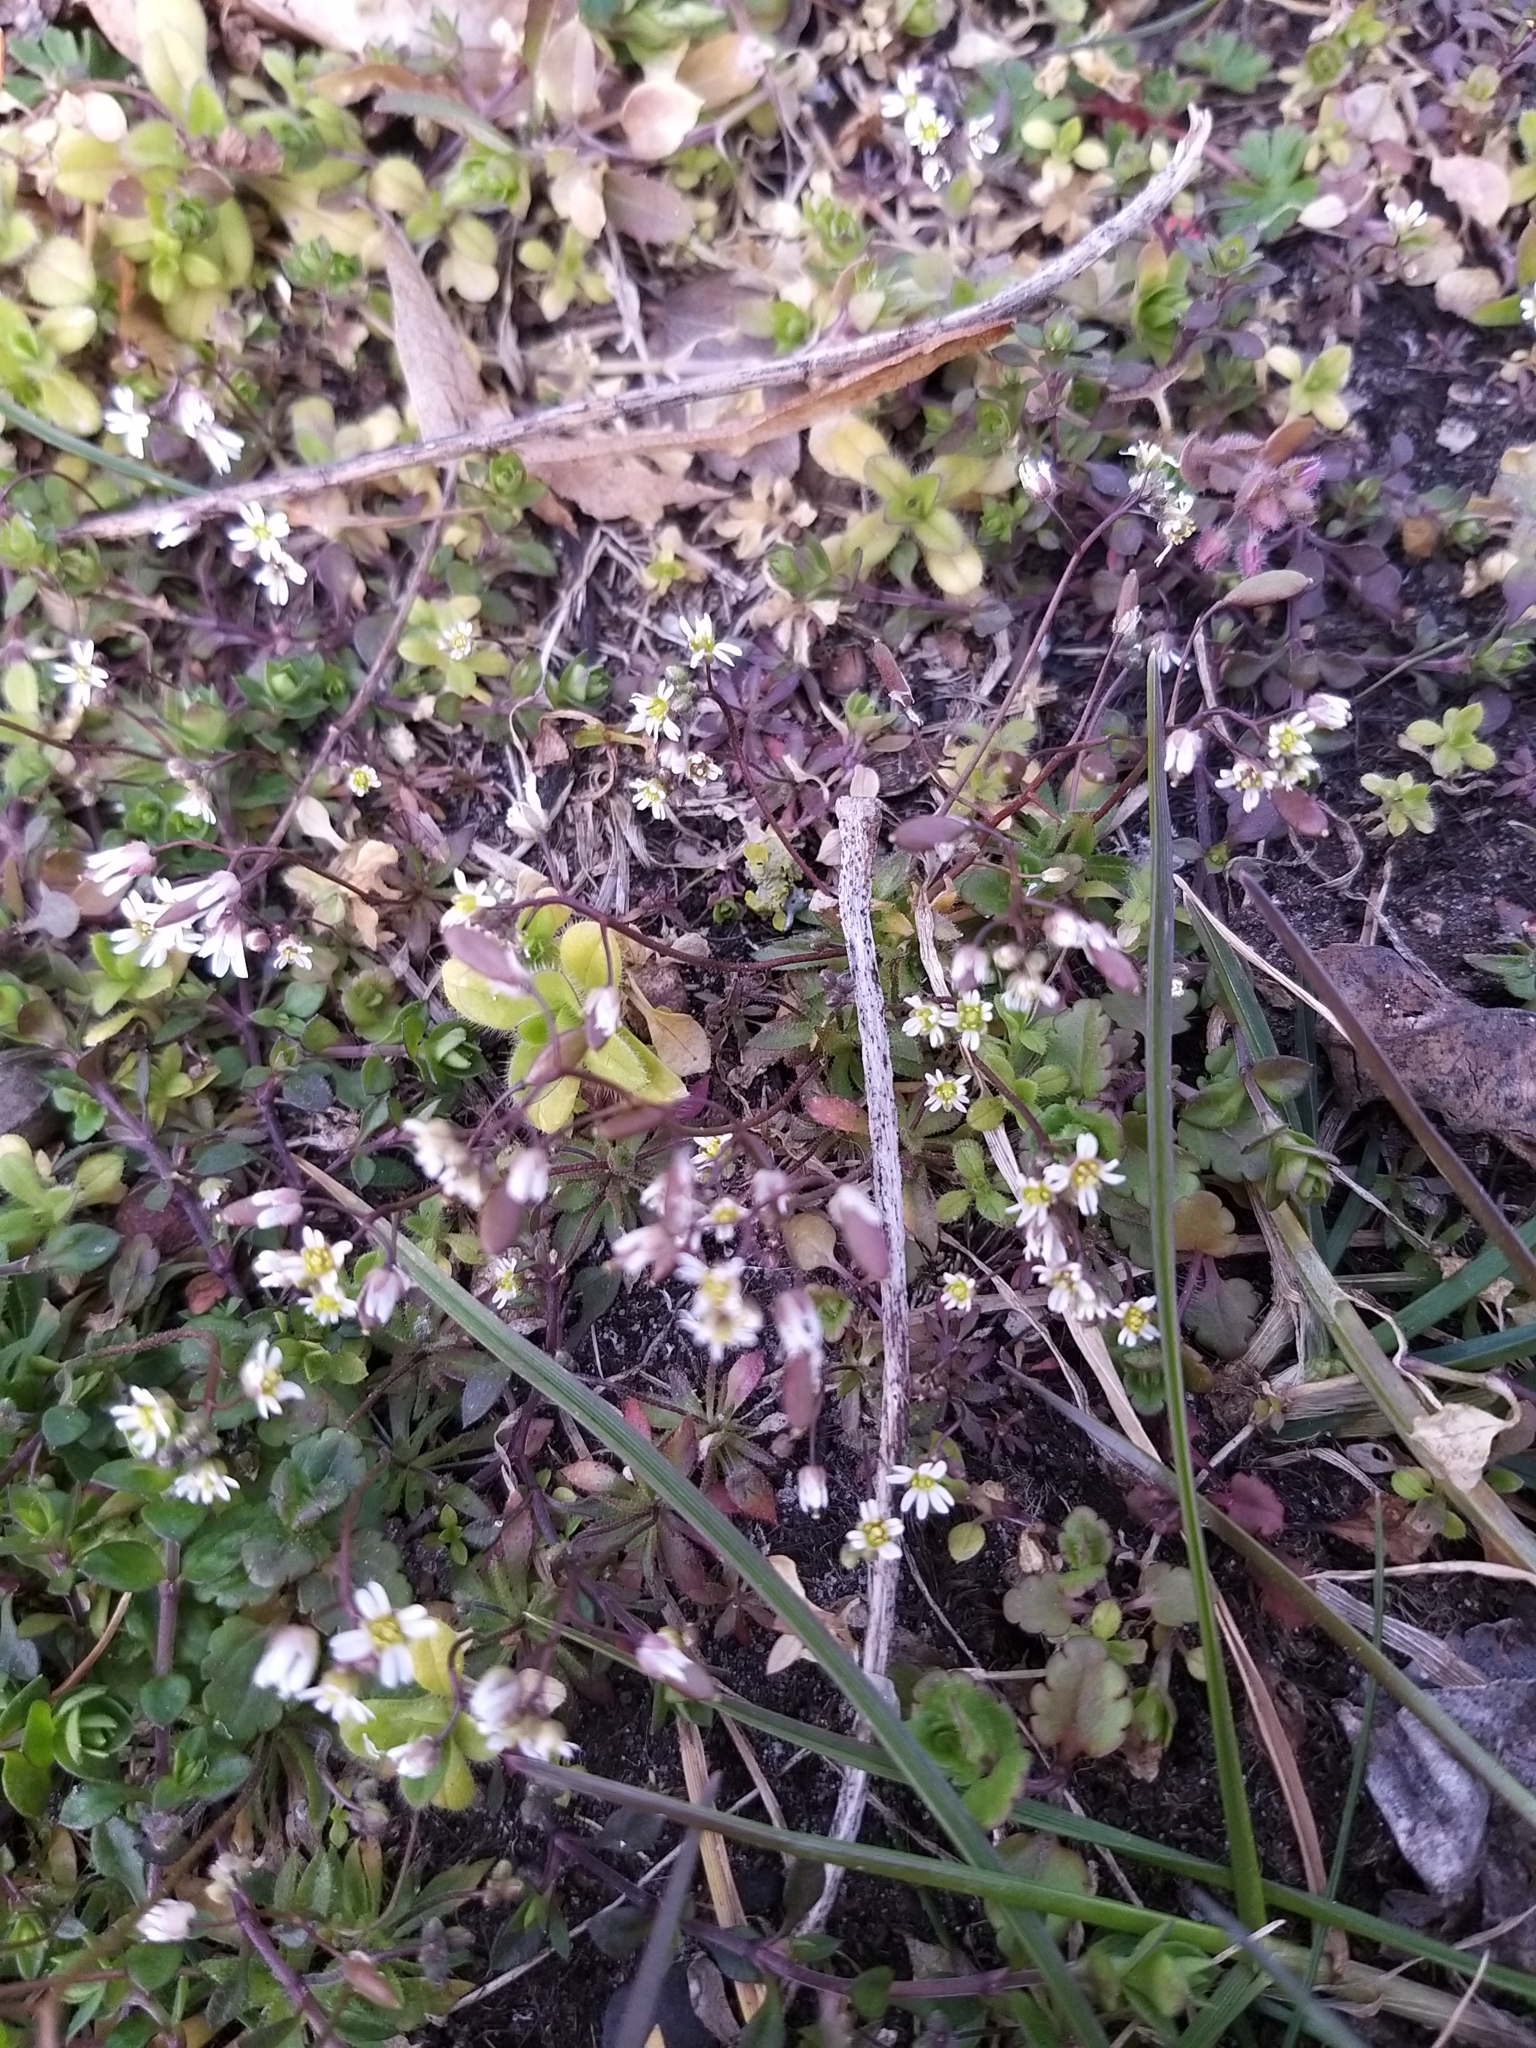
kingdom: Plantae
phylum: Tracheophyta
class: Magnoliopsida
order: Brassicales
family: Brassicaceae
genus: Draba
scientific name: Draba verna
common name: Spring draba
